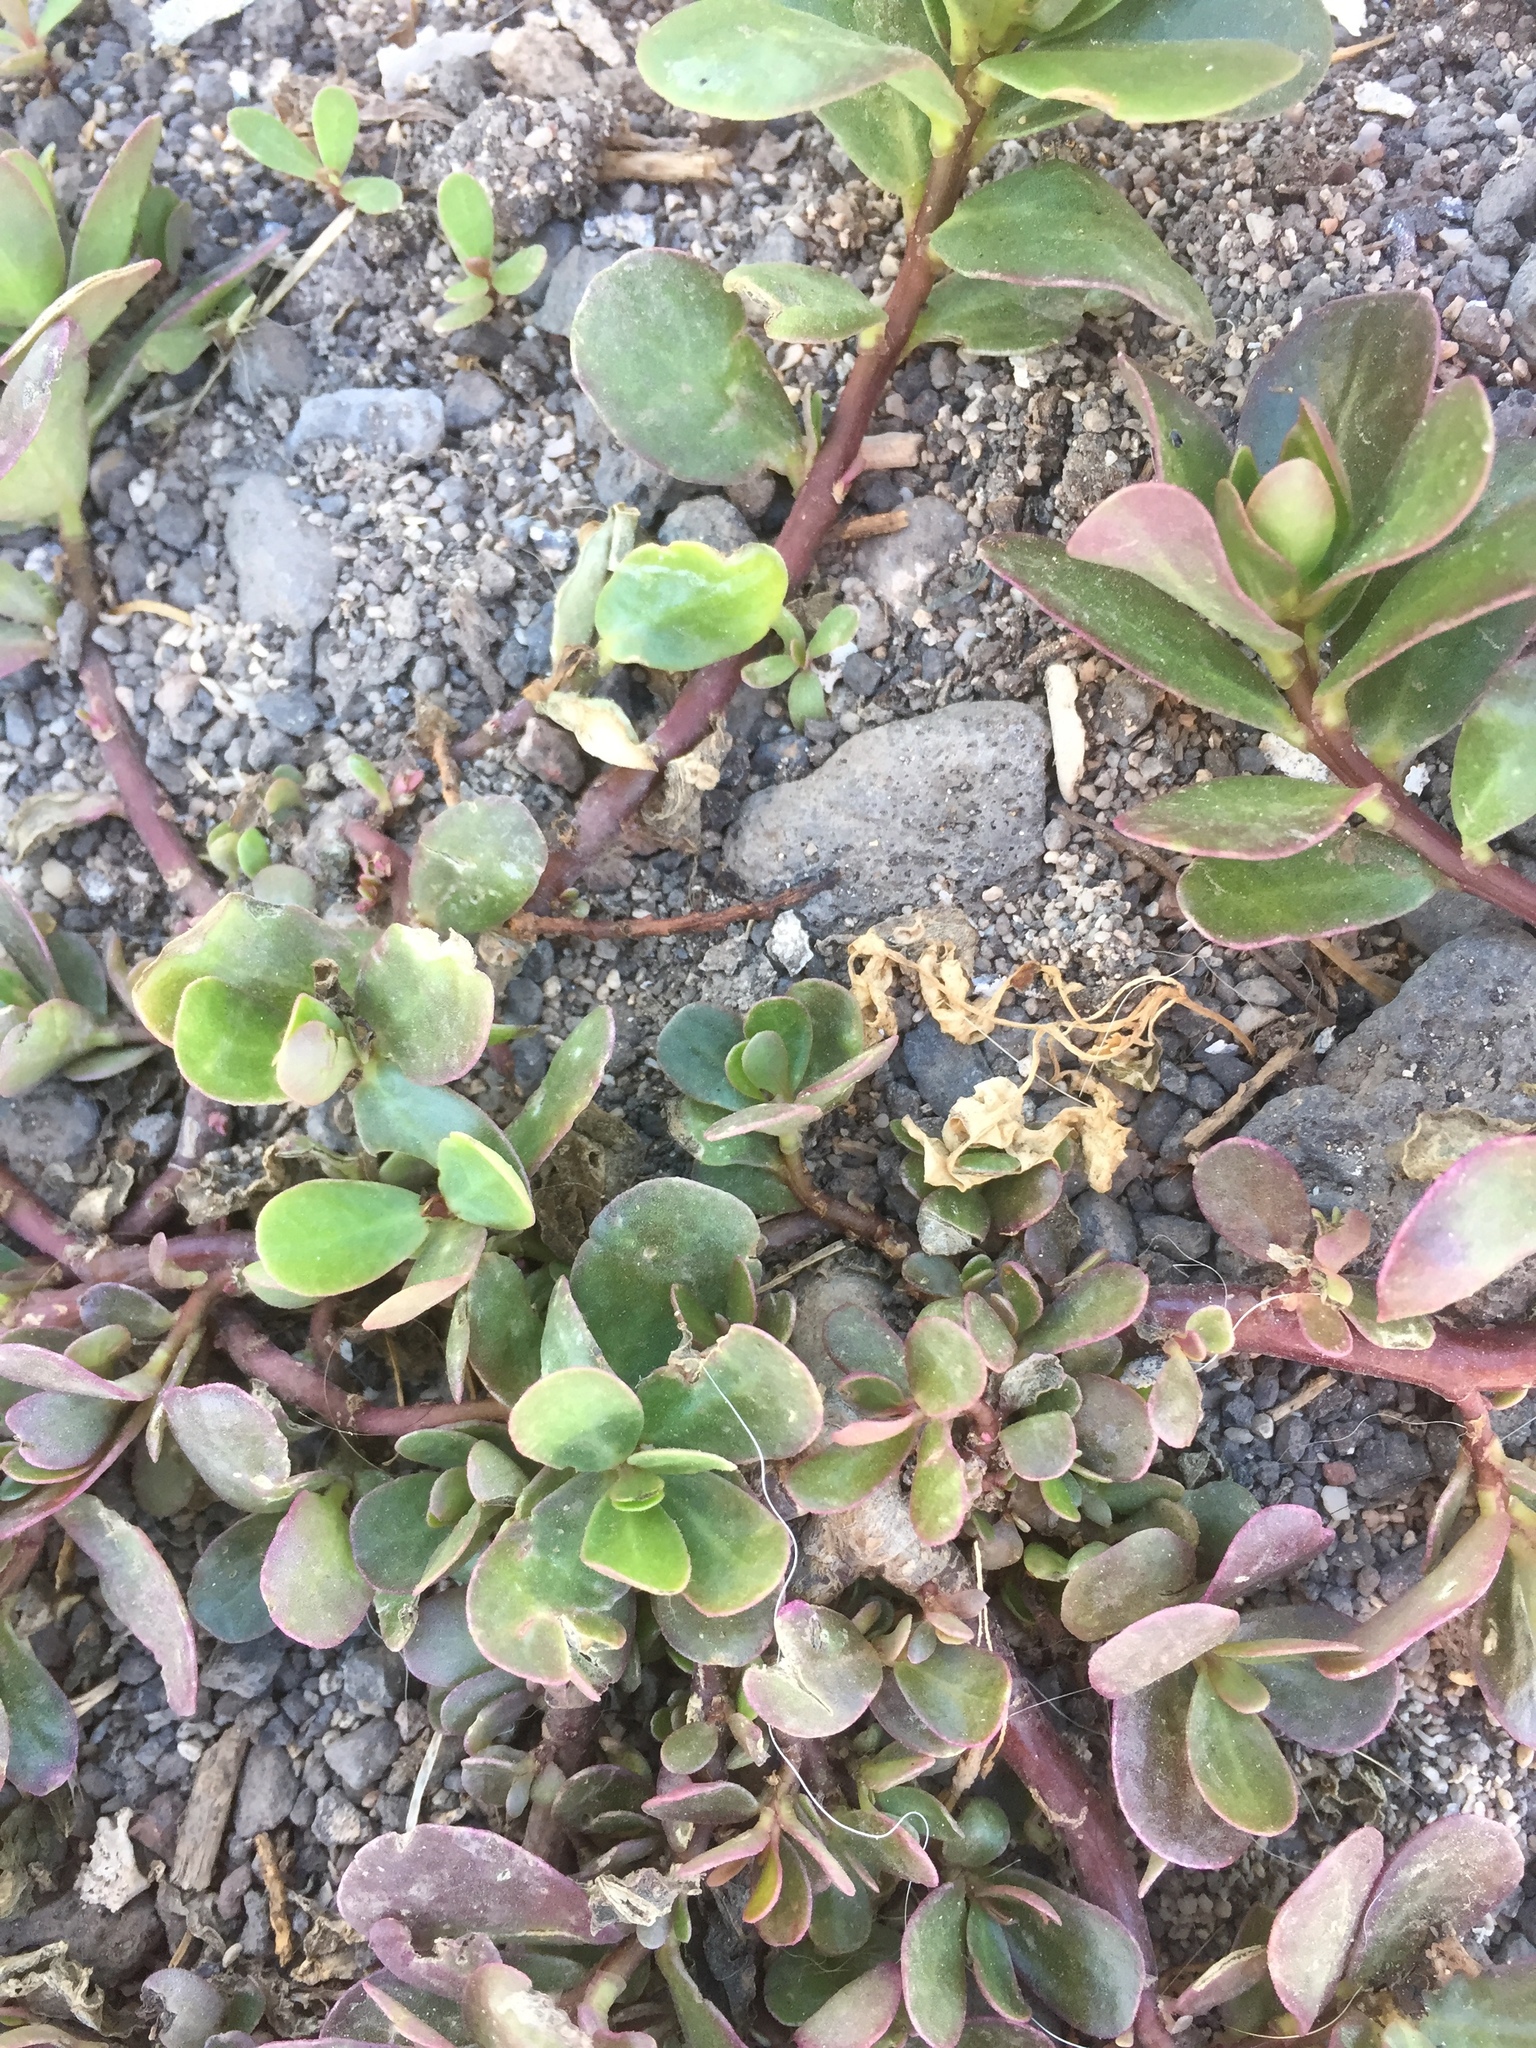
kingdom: Plantae
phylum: Tracheophyta
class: Magnoliopsida
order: Caryophyllales
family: Portulacaceae
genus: Portulaca
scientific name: Portulaca oleracea
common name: Common purslane
